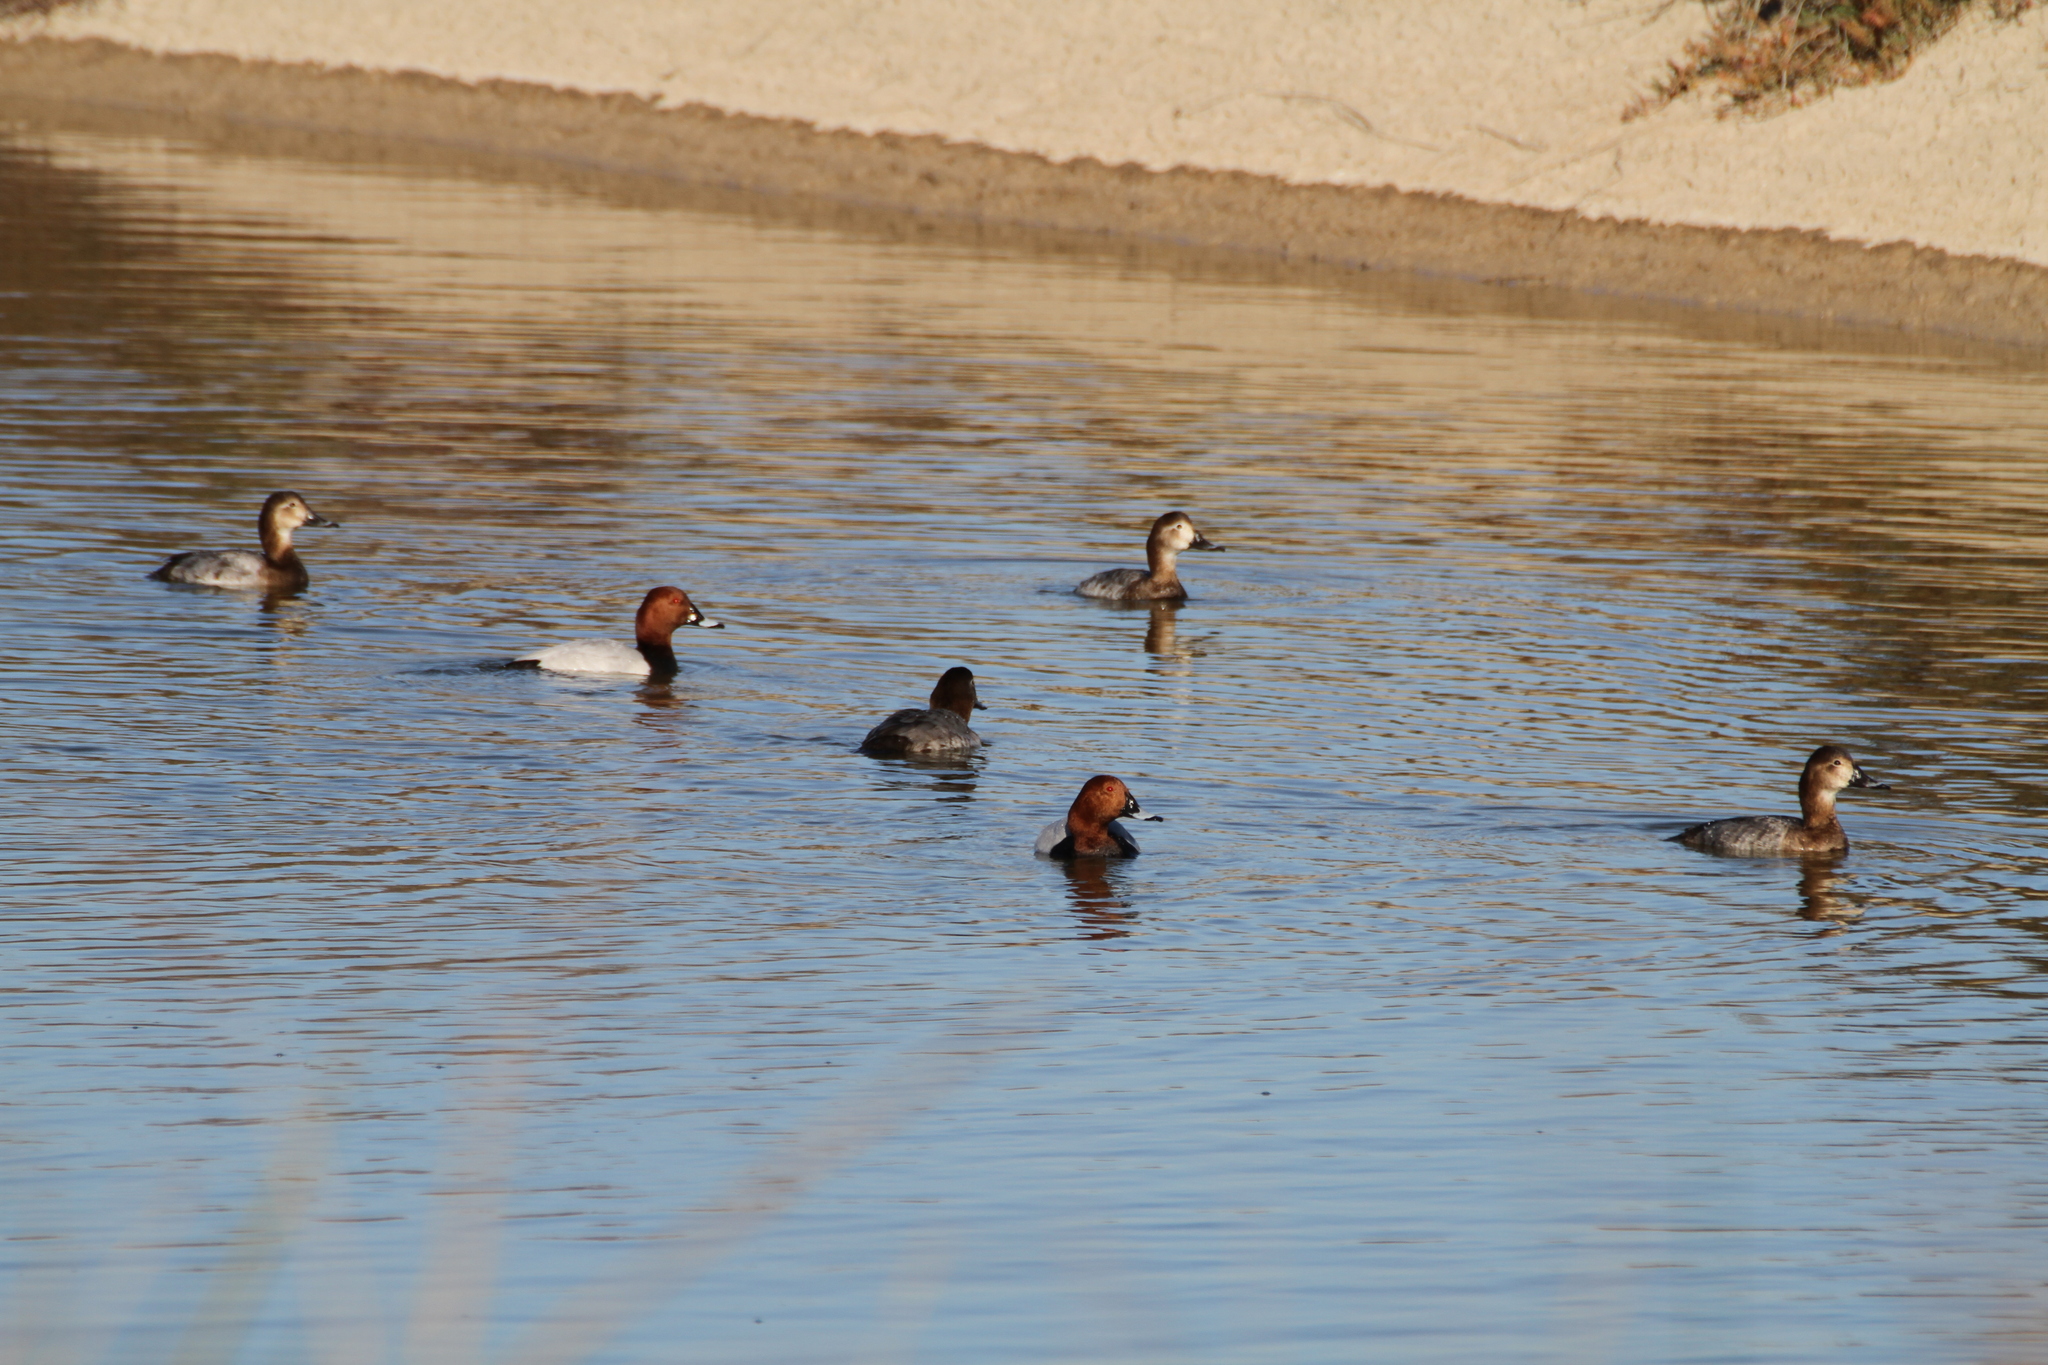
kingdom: Animalia
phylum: Chordata
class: Aves
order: Anseriformes
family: Anatidae
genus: Aythya
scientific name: Aythya ferina
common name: Common pochard
